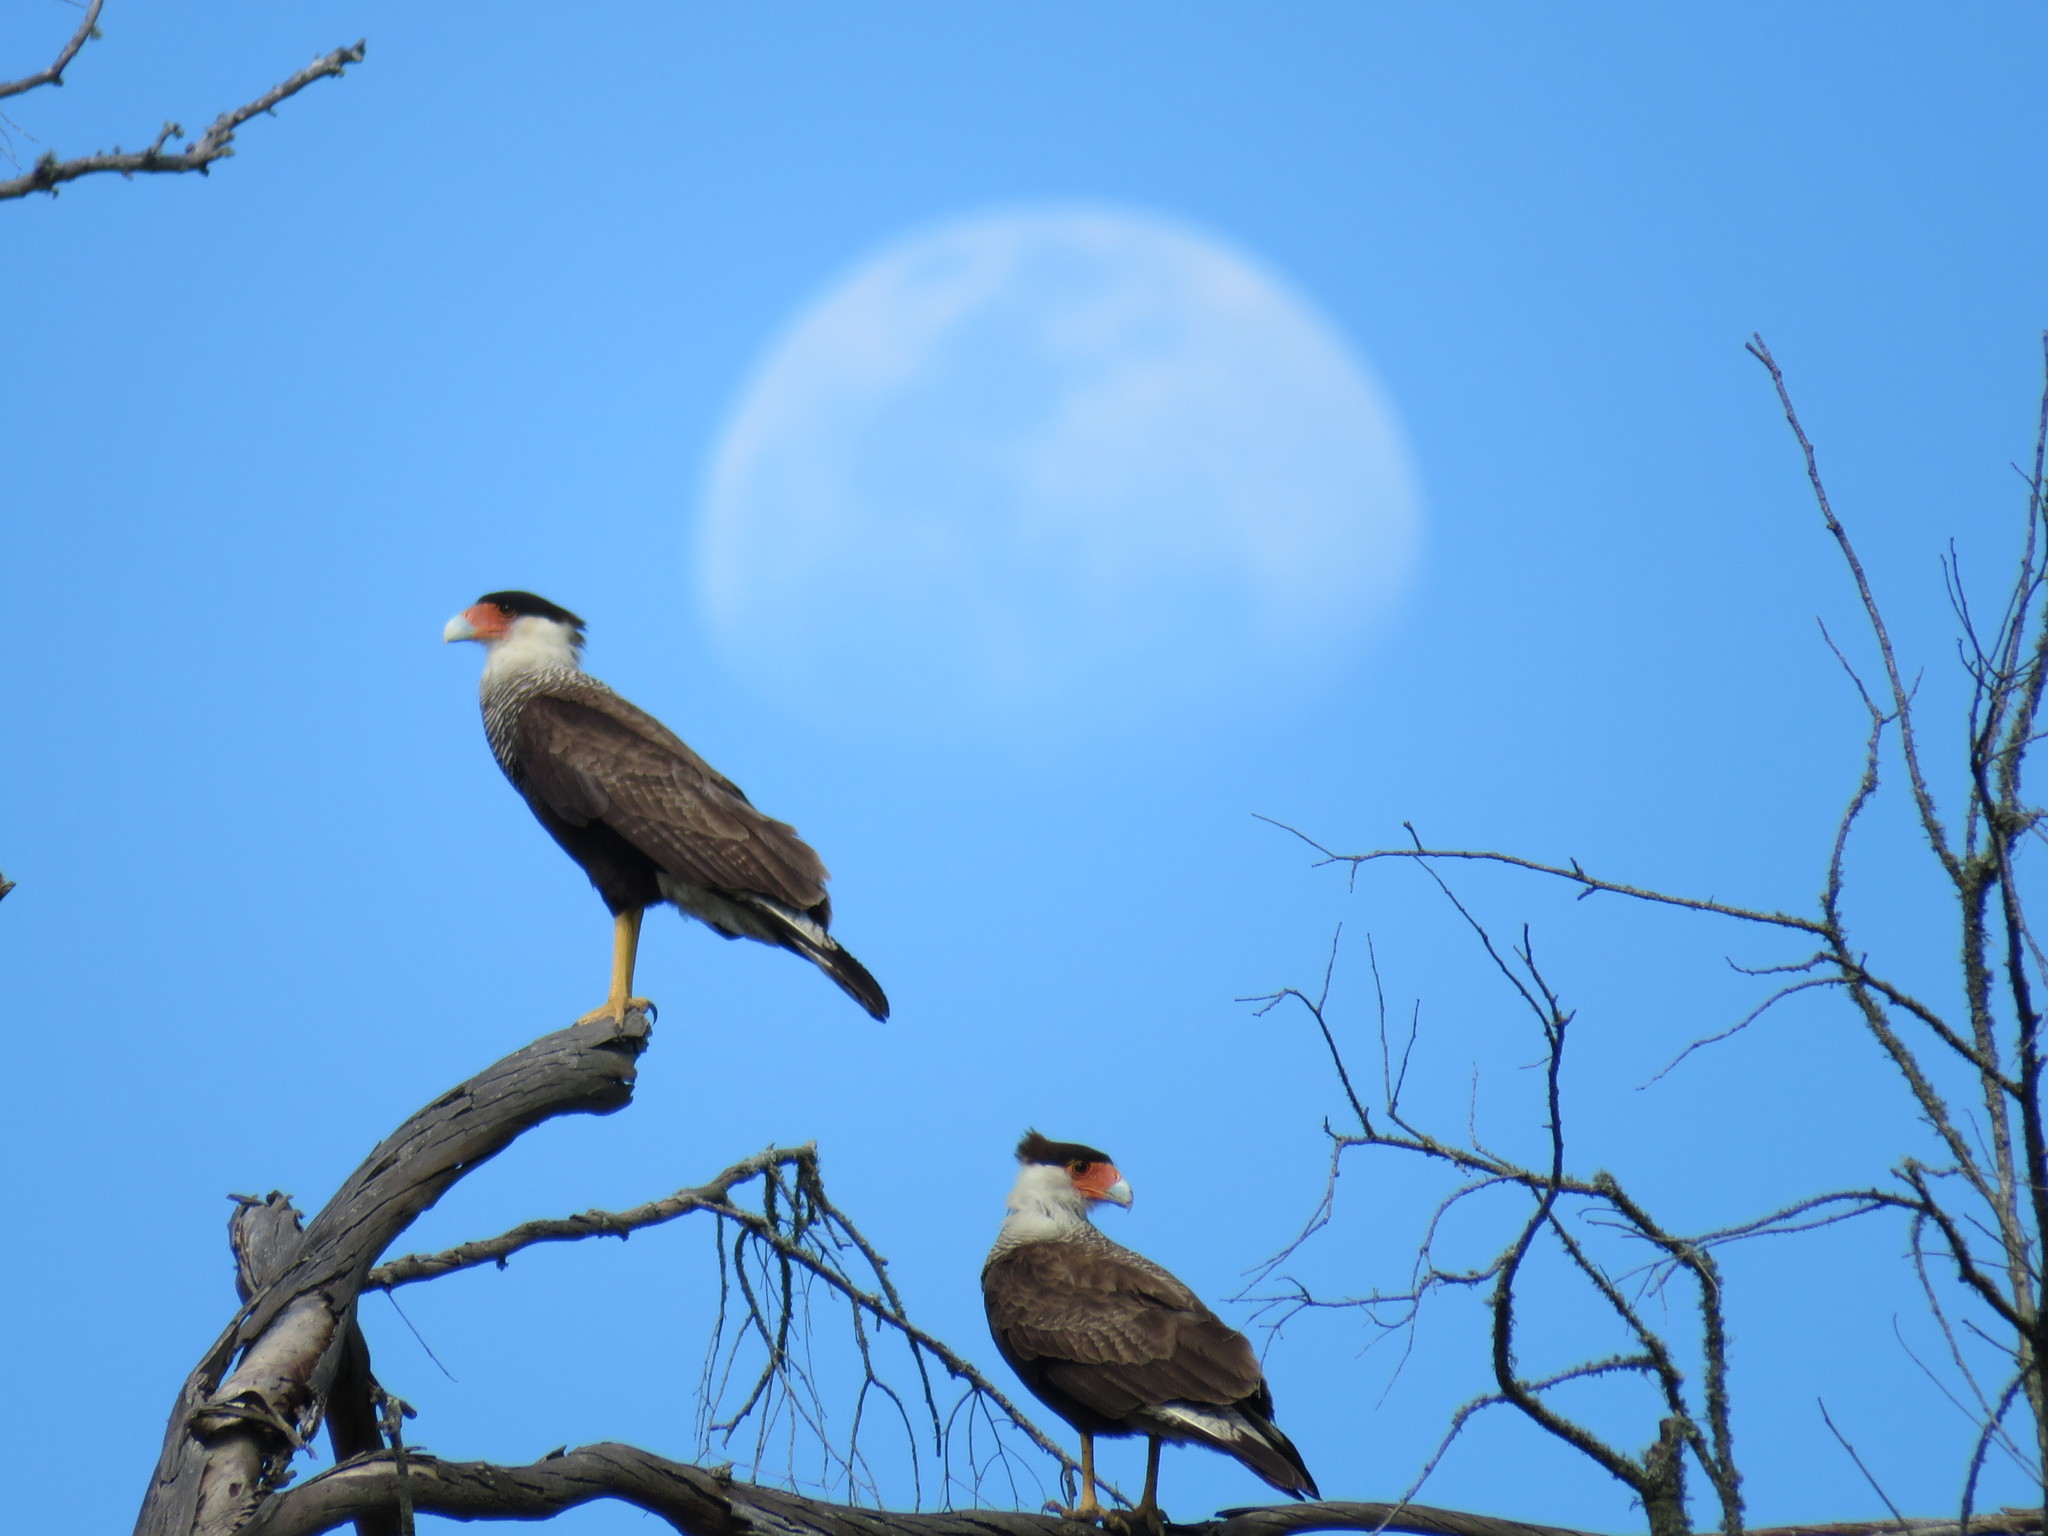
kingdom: Animalia
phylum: Chordata
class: Aves
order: Falconiformes
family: Falconidae
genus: Caracara
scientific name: Caracara plancus
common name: Southern caracara
